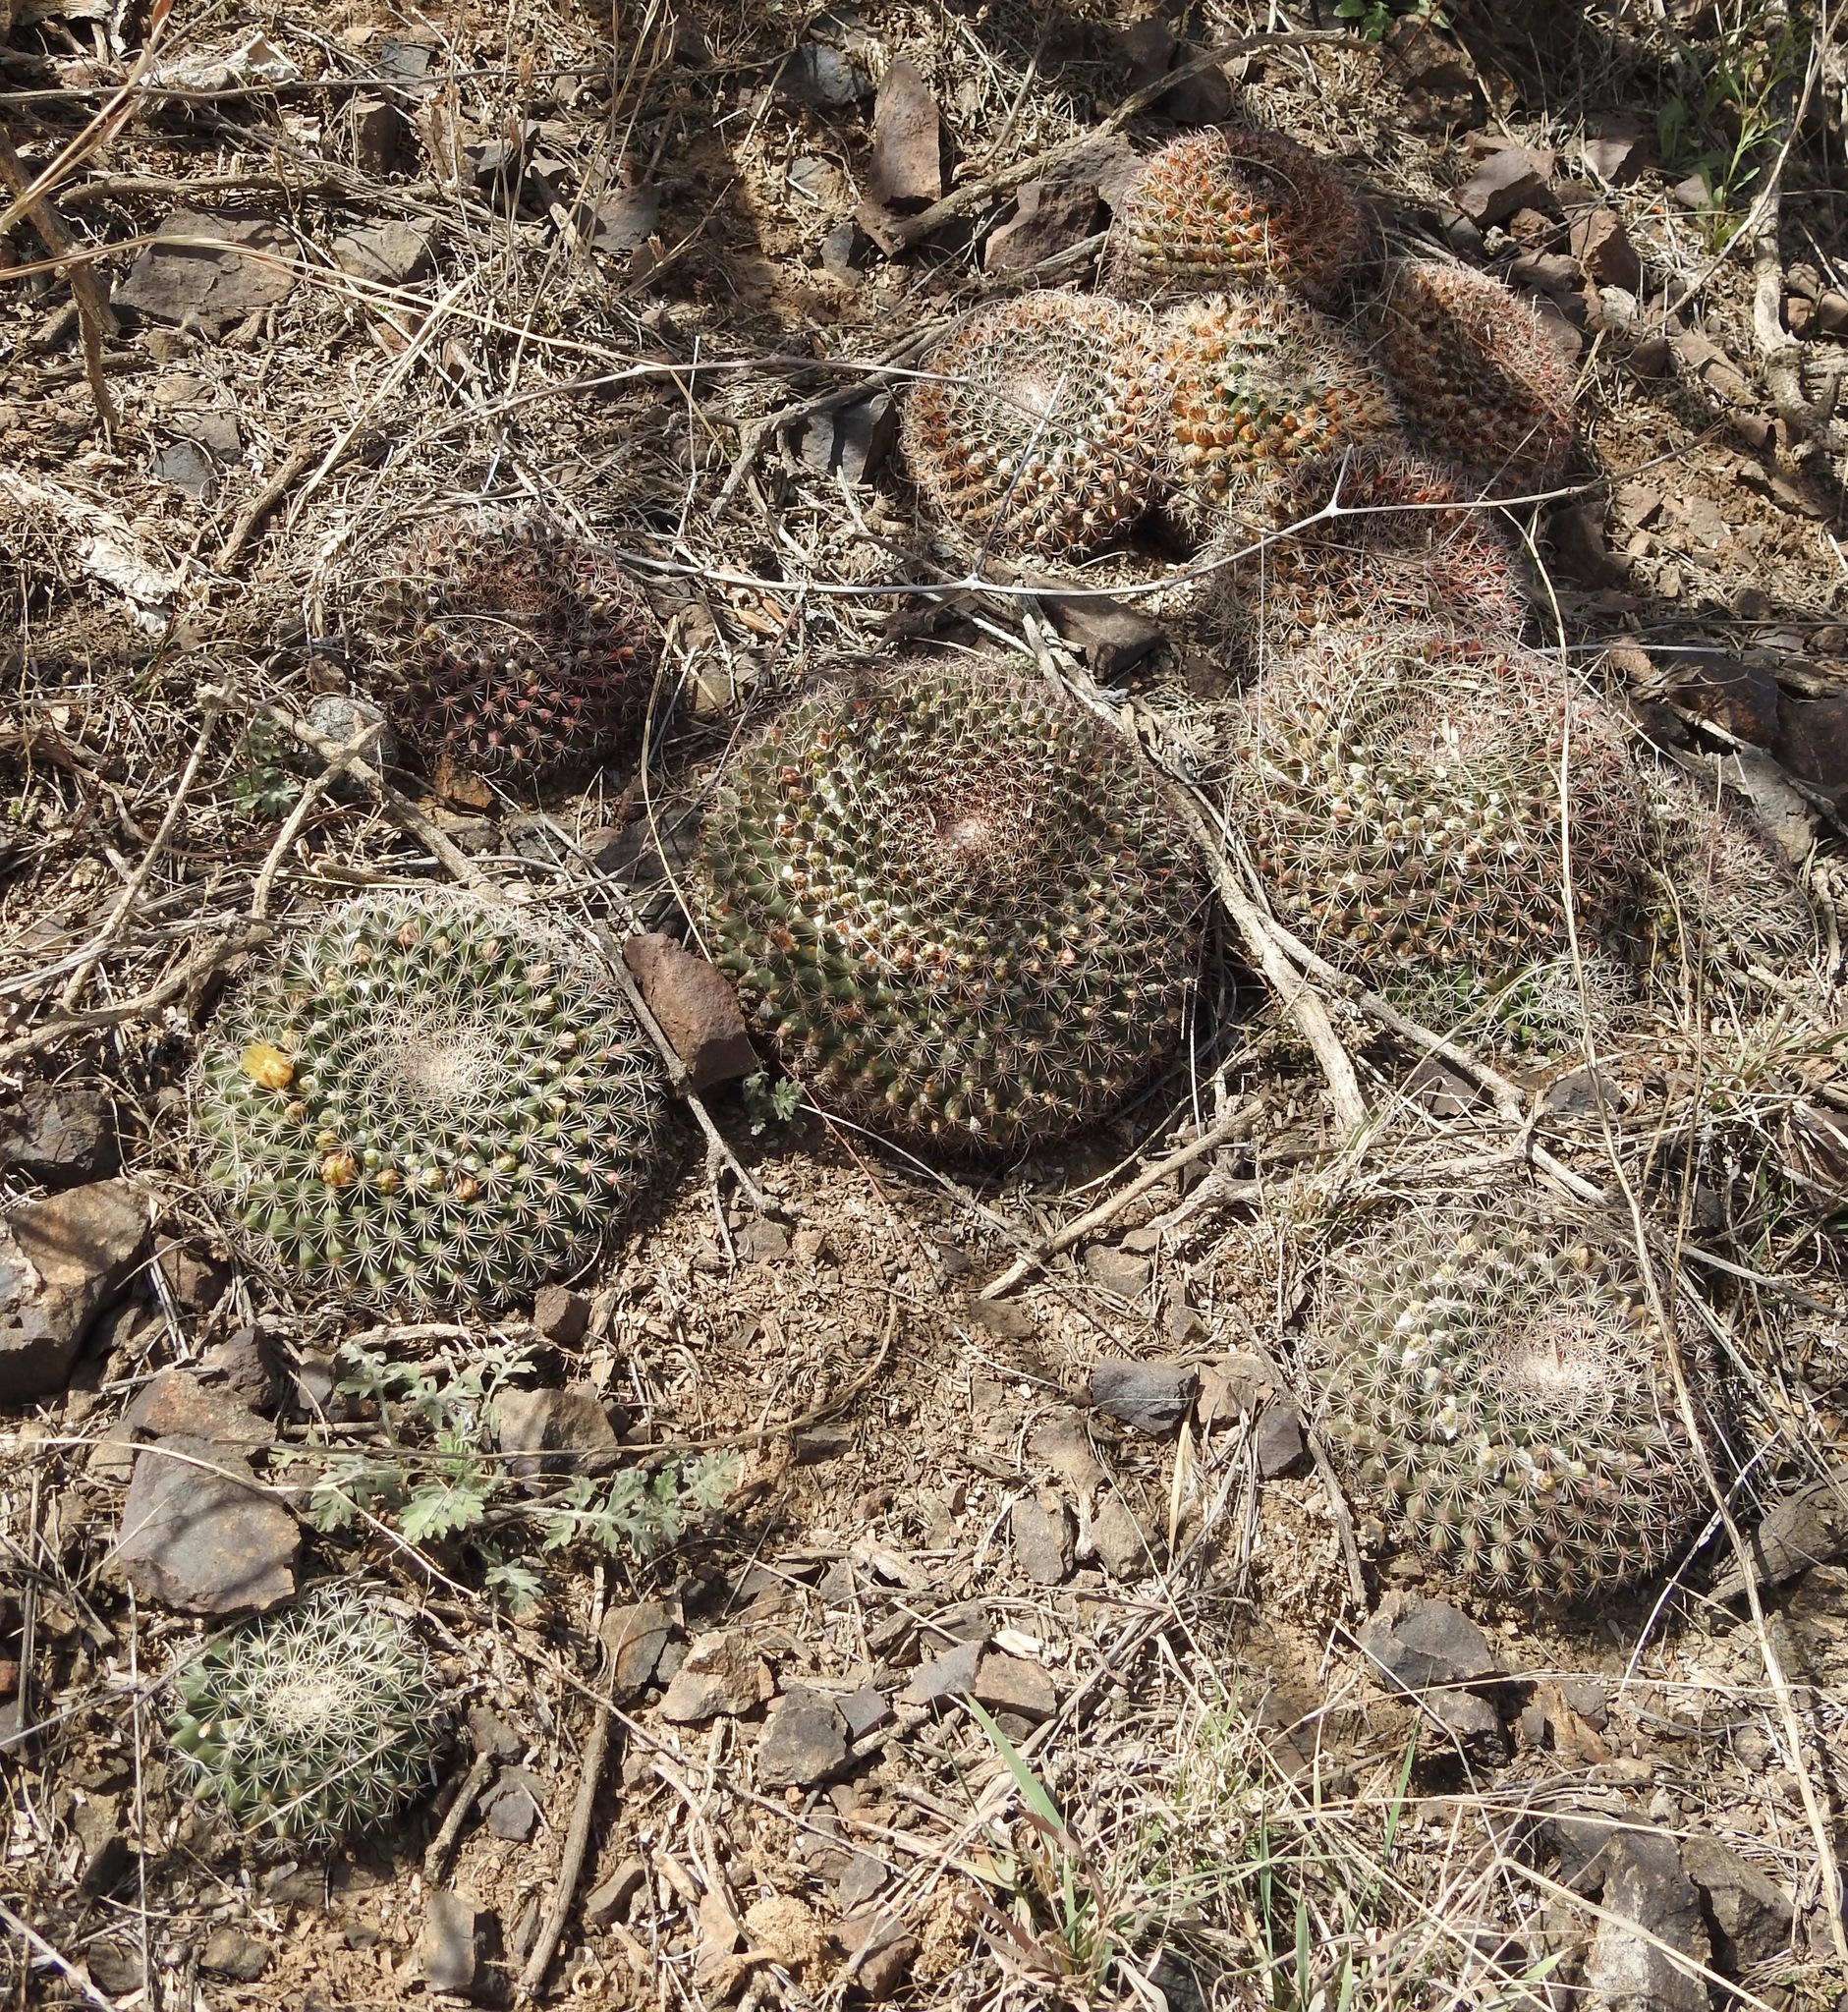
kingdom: Plantae
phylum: Tracheophyta
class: Magnoliopsida
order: Caryophyllales
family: Cactaceae
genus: Mammillaria
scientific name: Mammillaria heyderi
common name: Little nipple cactus
